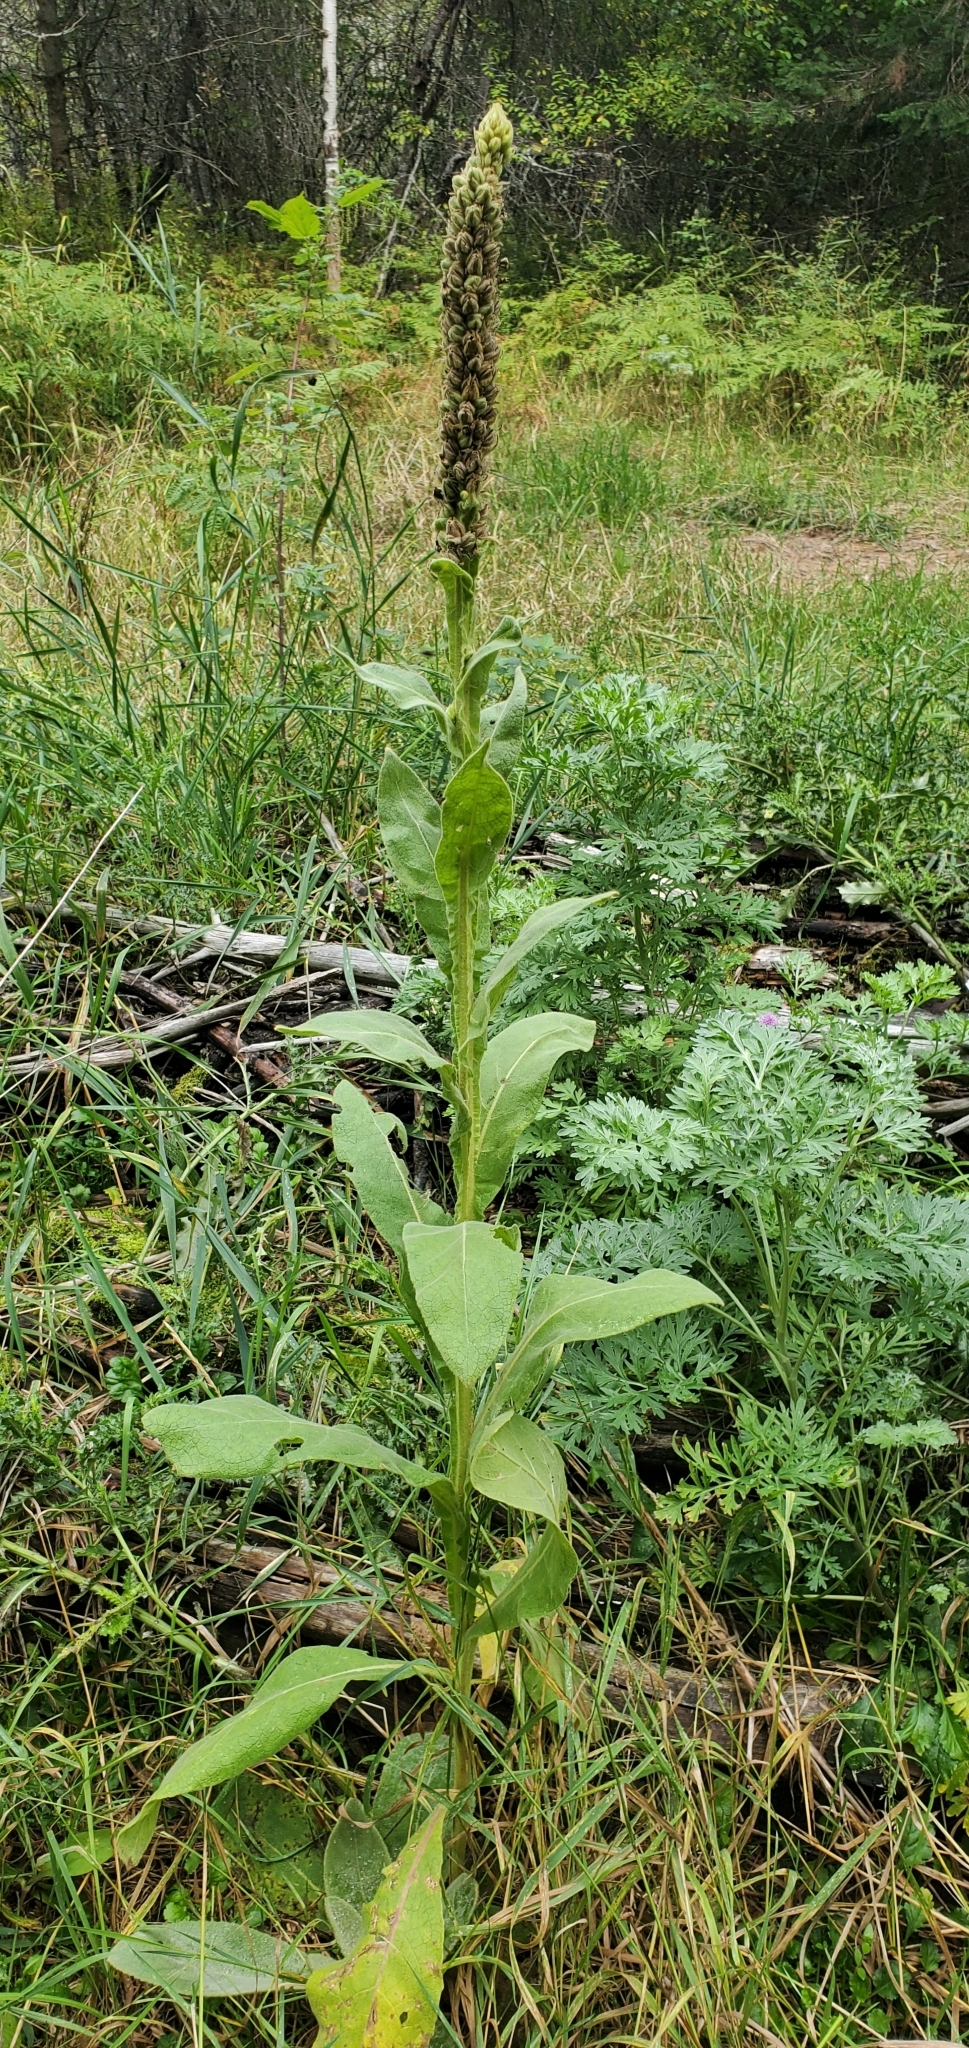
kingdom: Plantae
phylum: Tracheophyta
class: Magnoliopsida
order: Lamiales
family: Scrophulariaceae
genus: Verbascum
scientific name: Verbascum thapsus
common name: Common mullein
